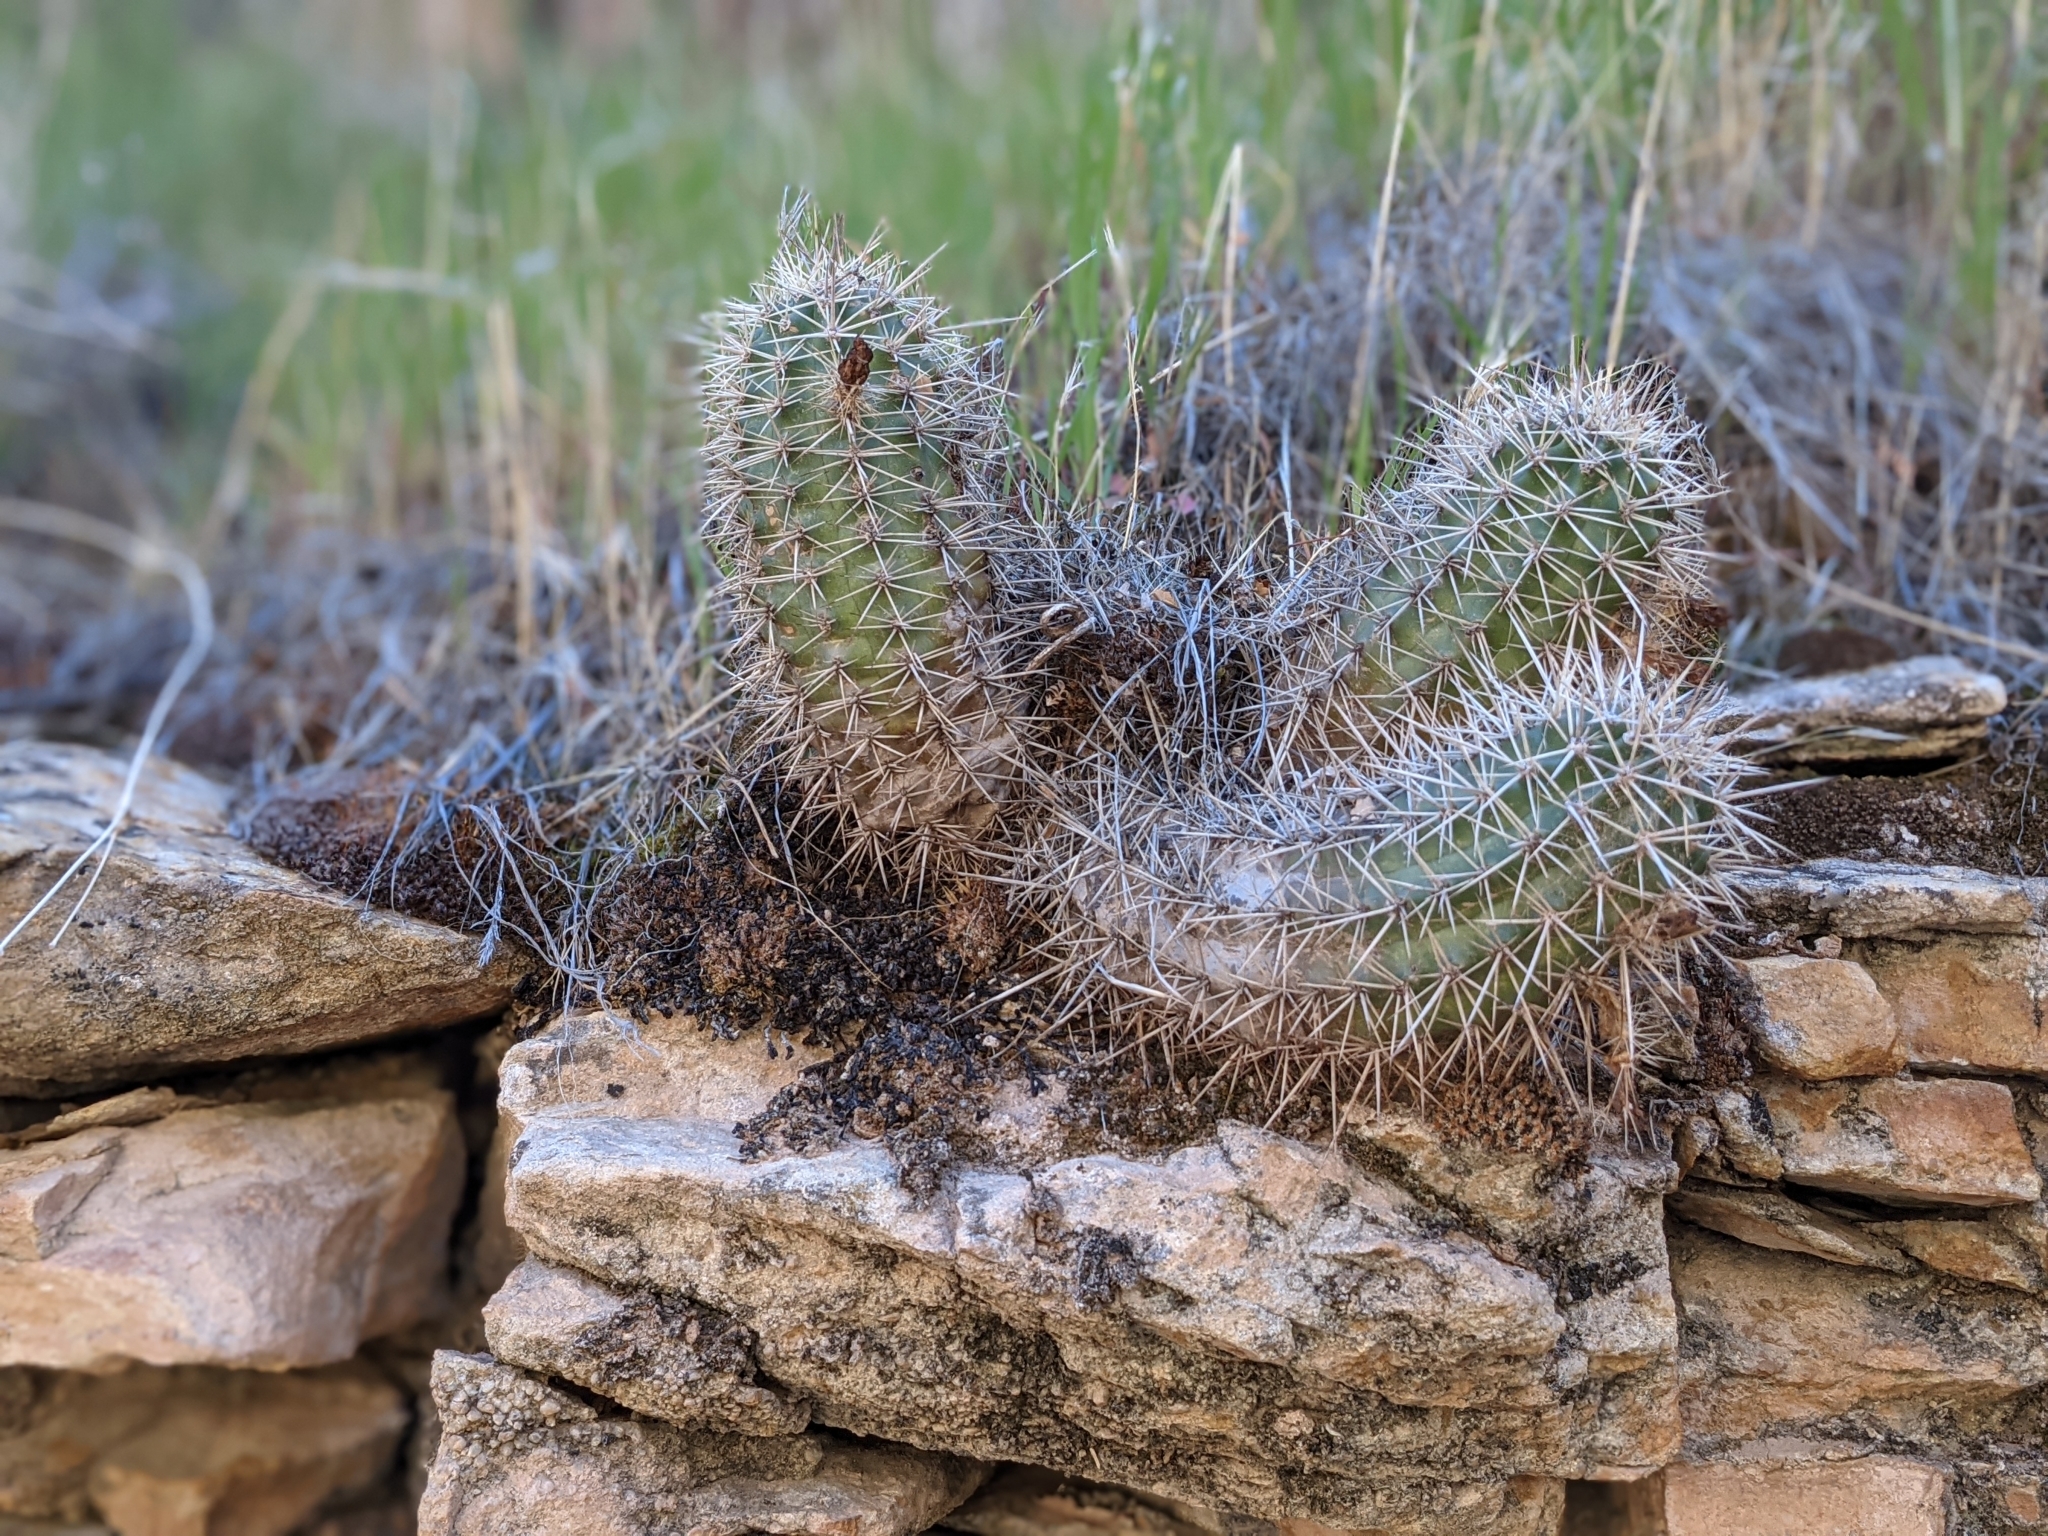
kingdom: Plantae
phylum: Tracheophyta
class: Magnoliopsida
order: Caryophyllales
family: Cactaceae
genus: Echinocereus
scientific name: Echinocereus bakeri
